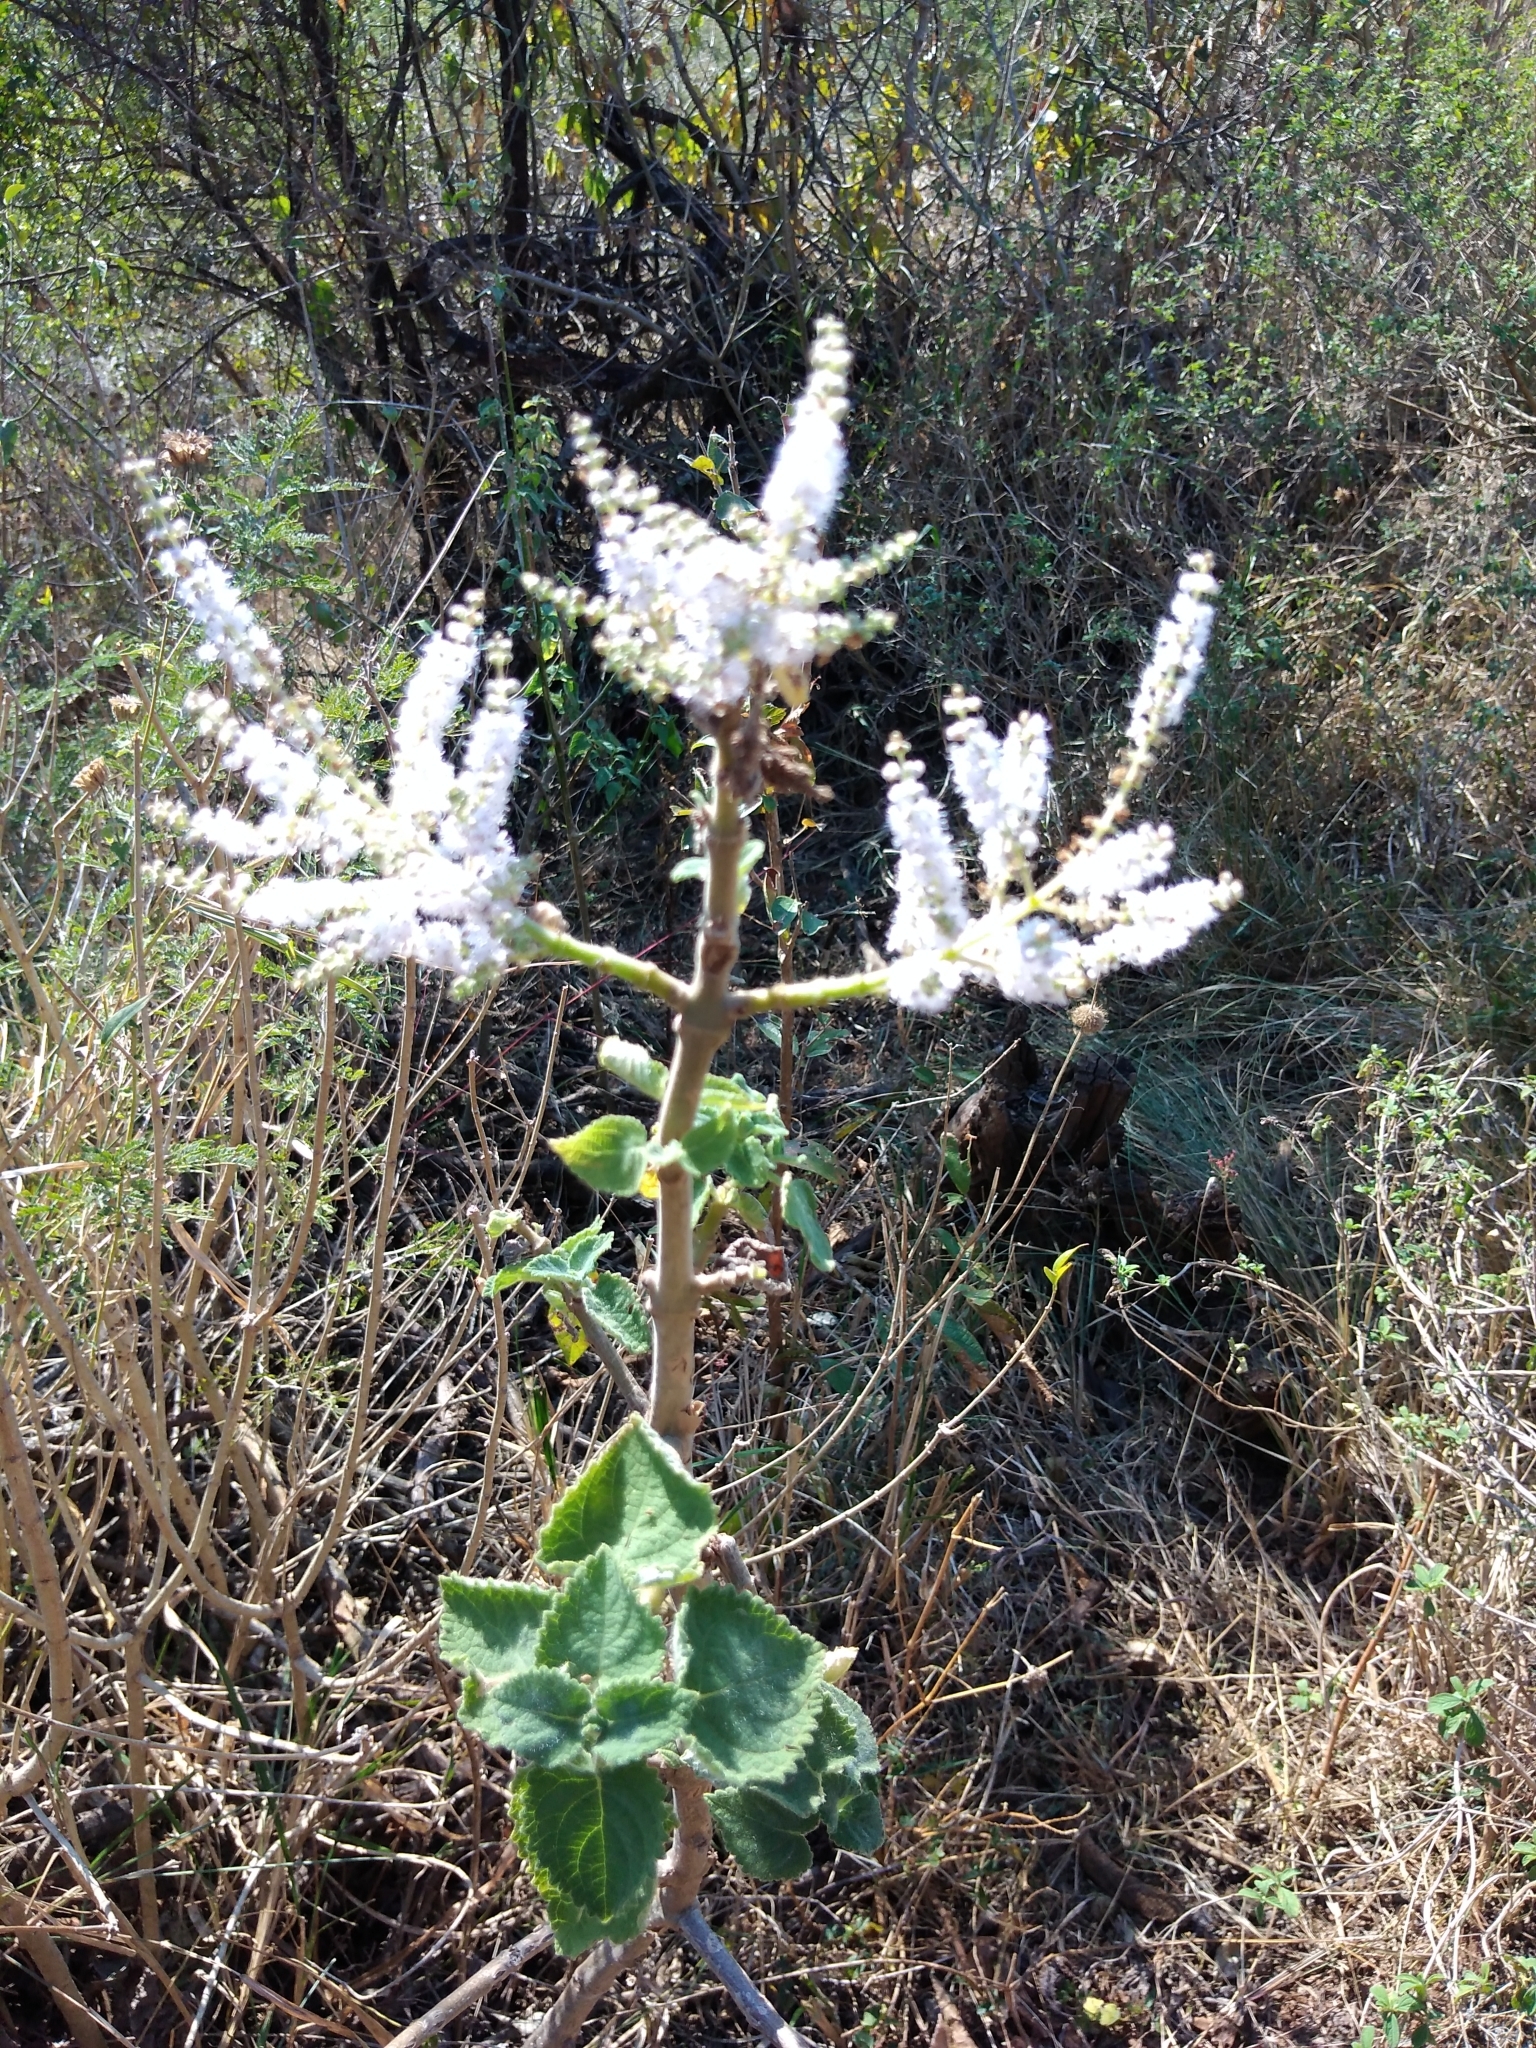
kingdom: Plantae
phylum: Tracheophyta
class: Magnoliopsida
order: Lamiales
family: Lamiaceae
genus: Tetradenia
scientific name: Tetradenia riparia
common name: Gingerbush
